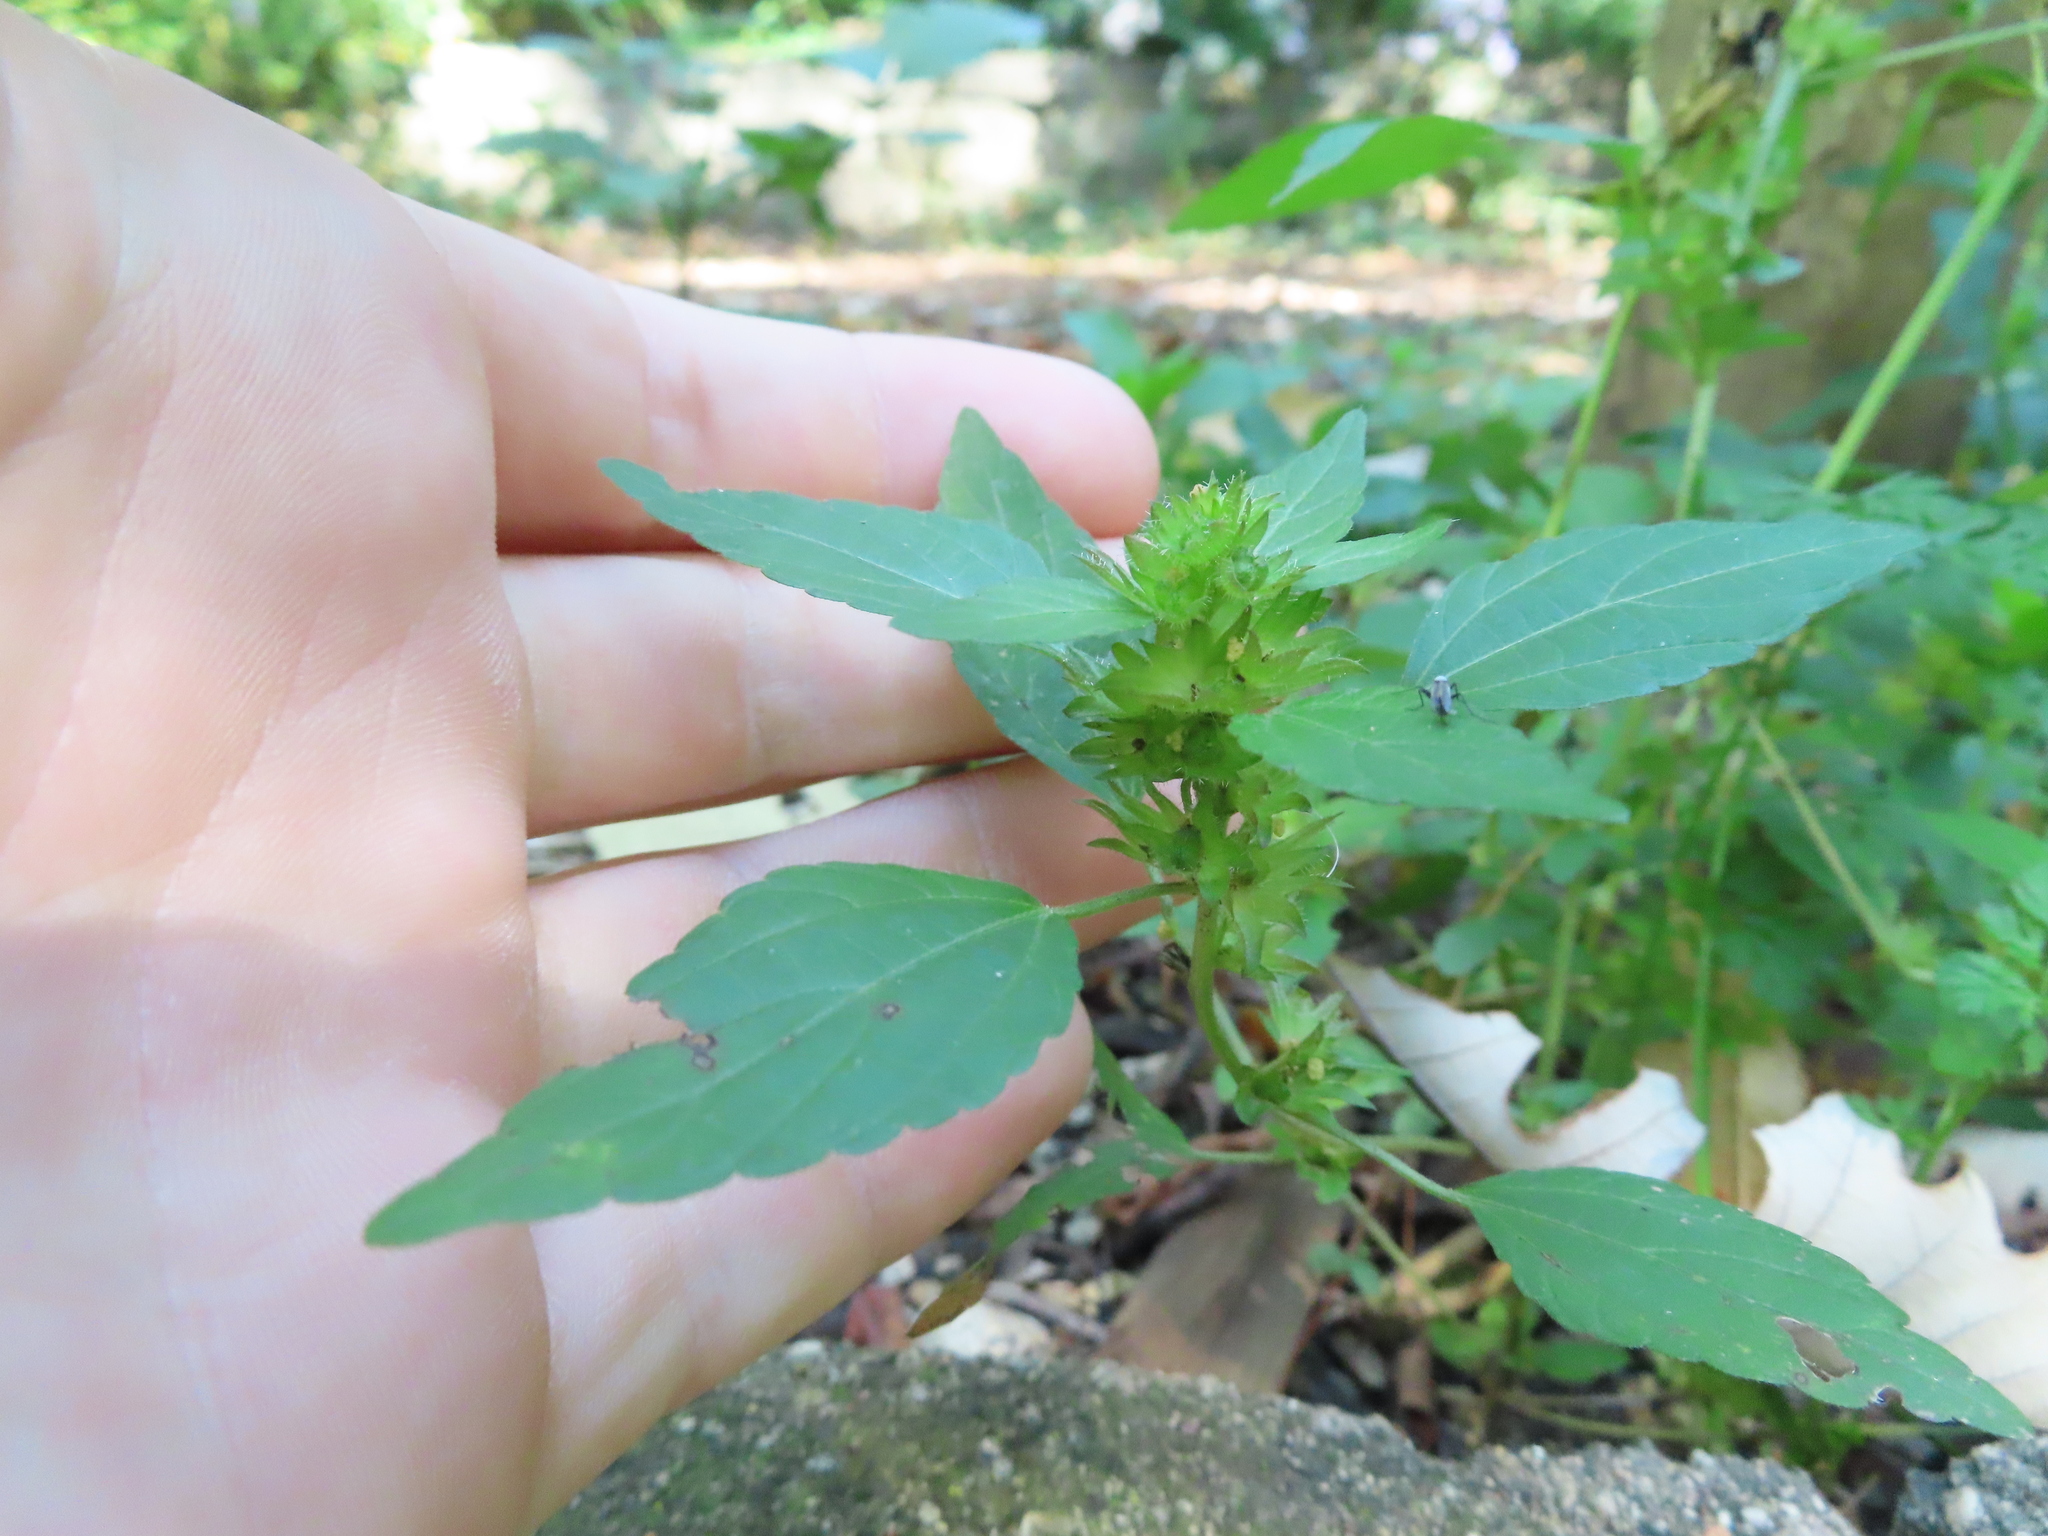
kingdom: Plantae
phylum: Tracheophyta
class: Magnoliopsida
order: Malpighiales
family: Euphorbiaceae
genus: Acalypha
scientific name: Acalypha rhomboidea
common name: Rhombic copperleaf
